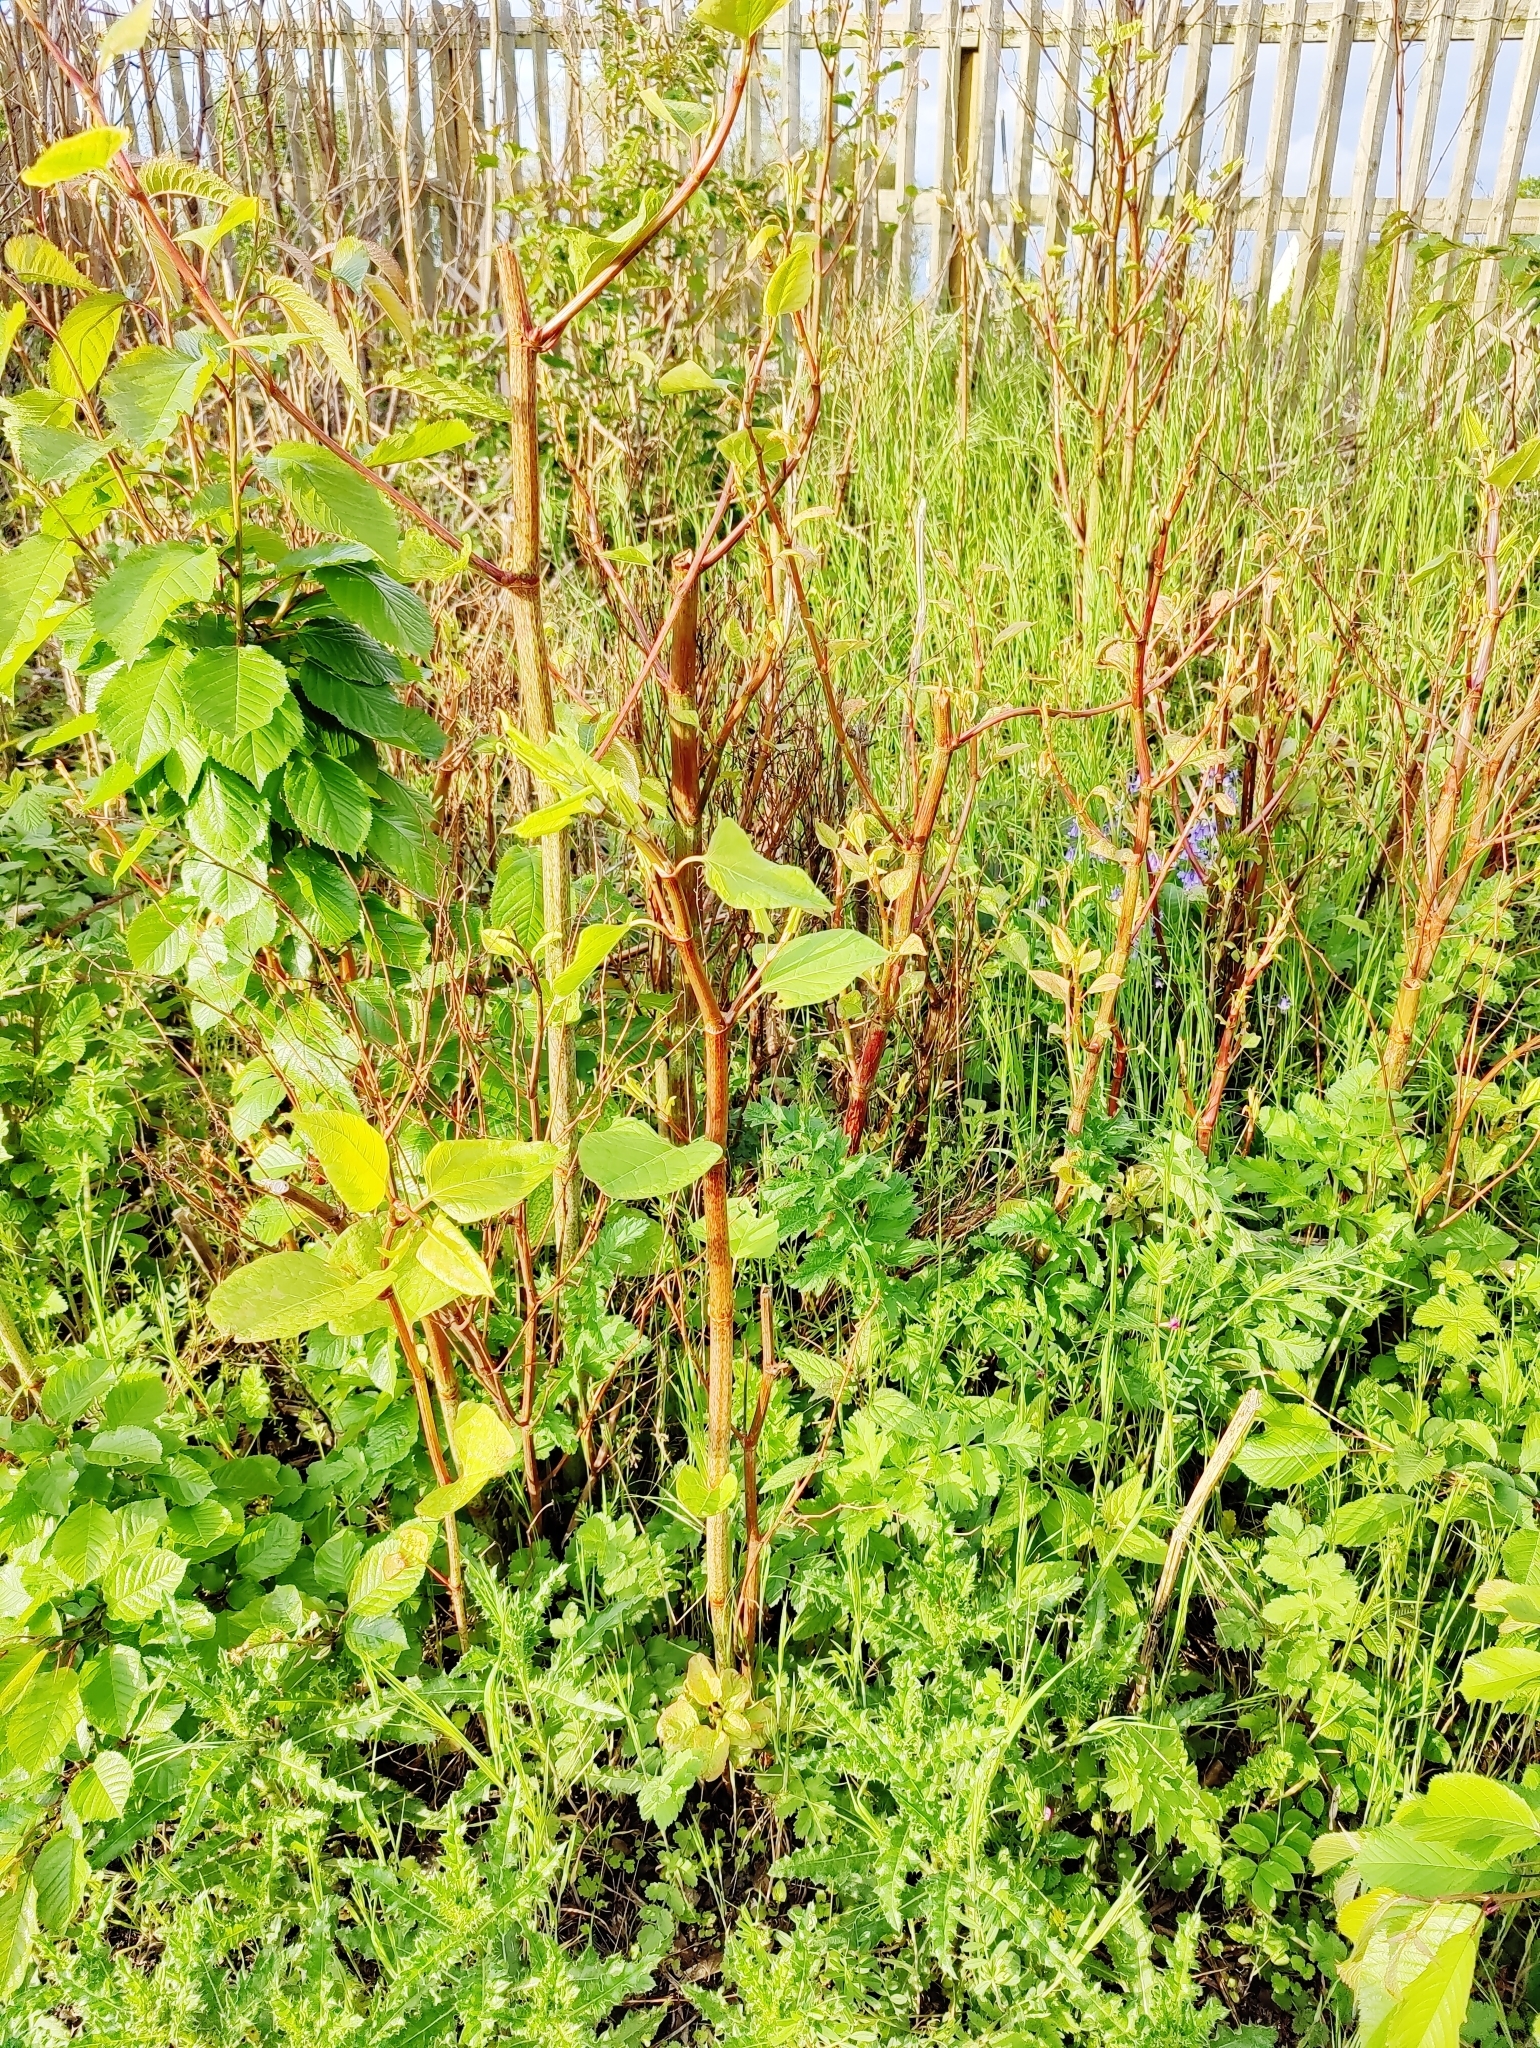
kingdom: Plantae
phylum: Tracheophyta
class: Magnoliopsida
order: Caryophyllales
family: Polygonaceae
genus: Reynoutria
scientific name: Reynoutria japonica
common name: Japanese knotweed
